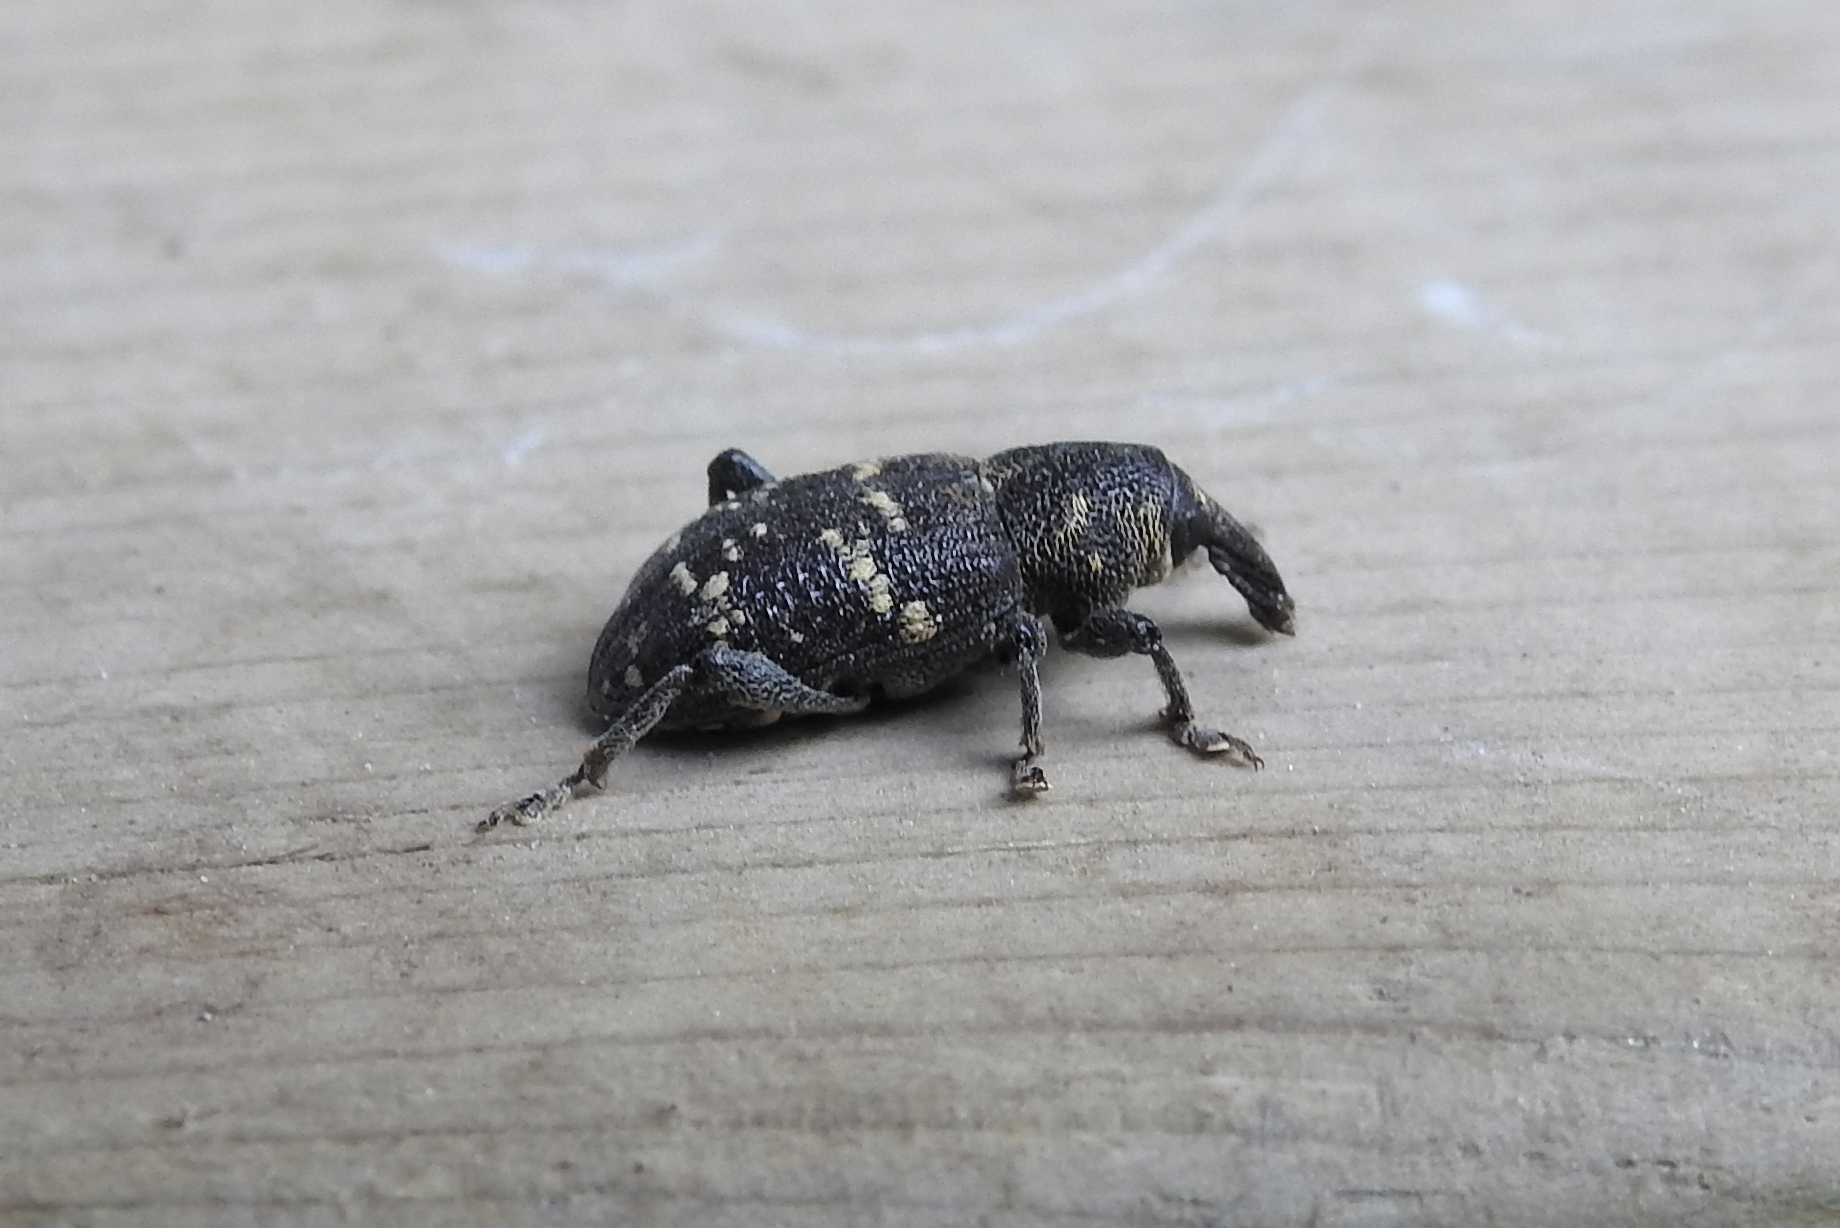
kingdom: Animalia
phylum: Arthropoda
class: Insecta
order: Coleoptera
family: Curculionidae
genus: Hylobius
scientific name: Hylobius abietis
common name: Large pine weevil
